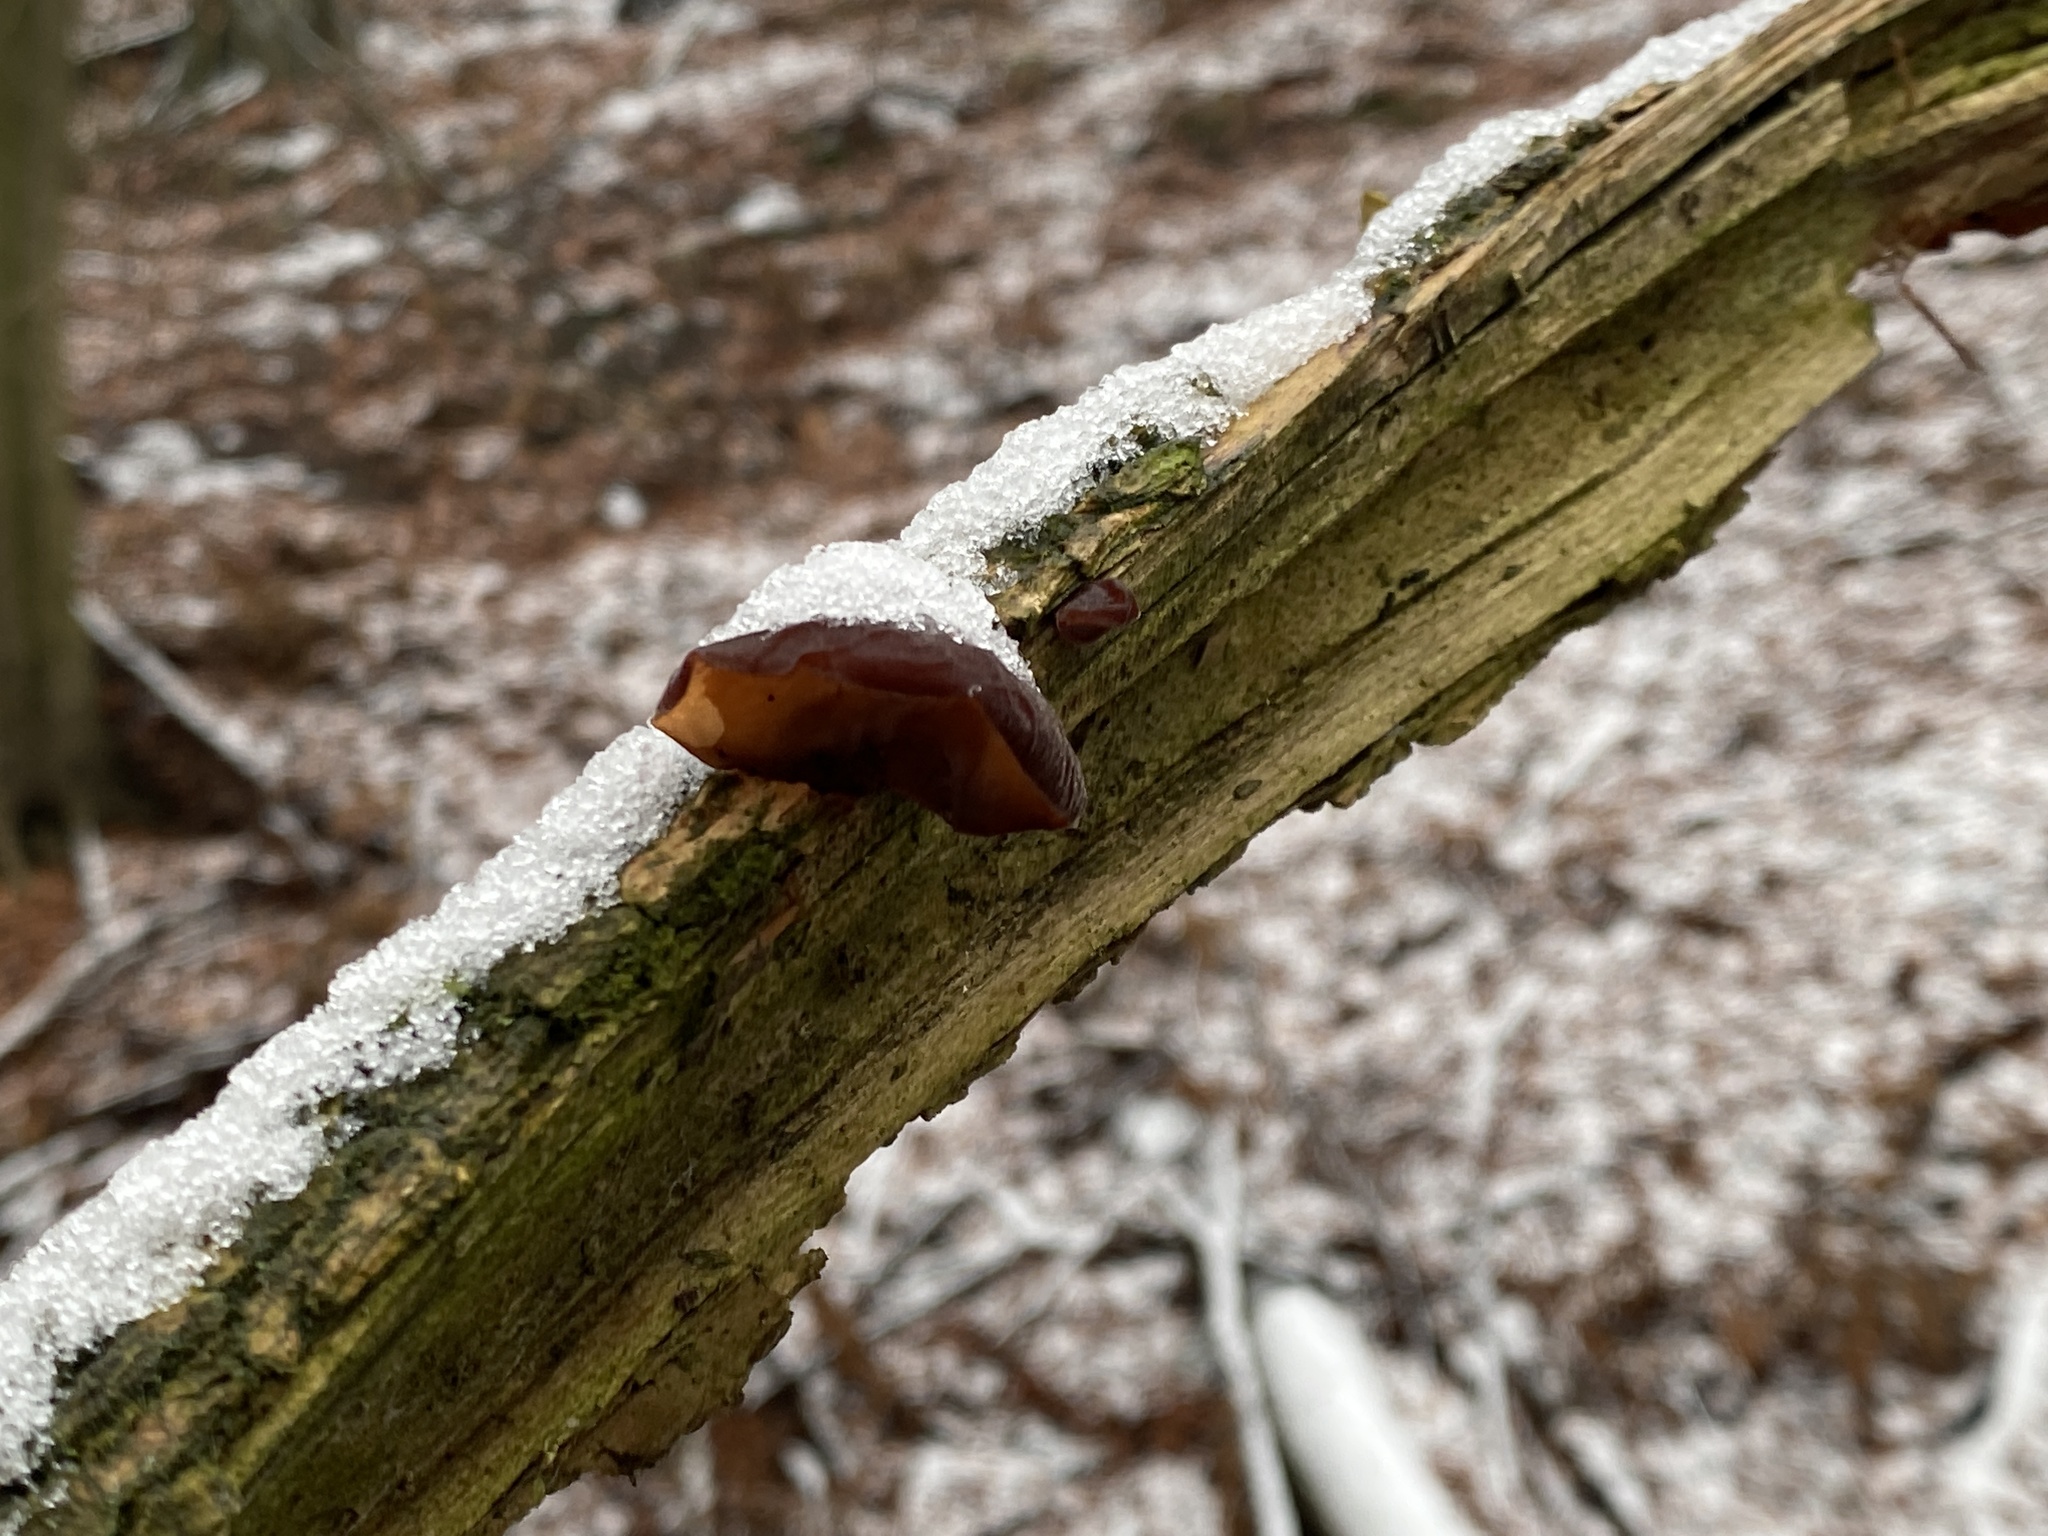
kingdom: Fungi
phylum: Basidiomycota
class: Agaricomycetes
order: Auriculariales
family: Auriculariaceae
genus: Auricularia
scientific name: Auricularia auricula-judae
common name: Jelly ear
